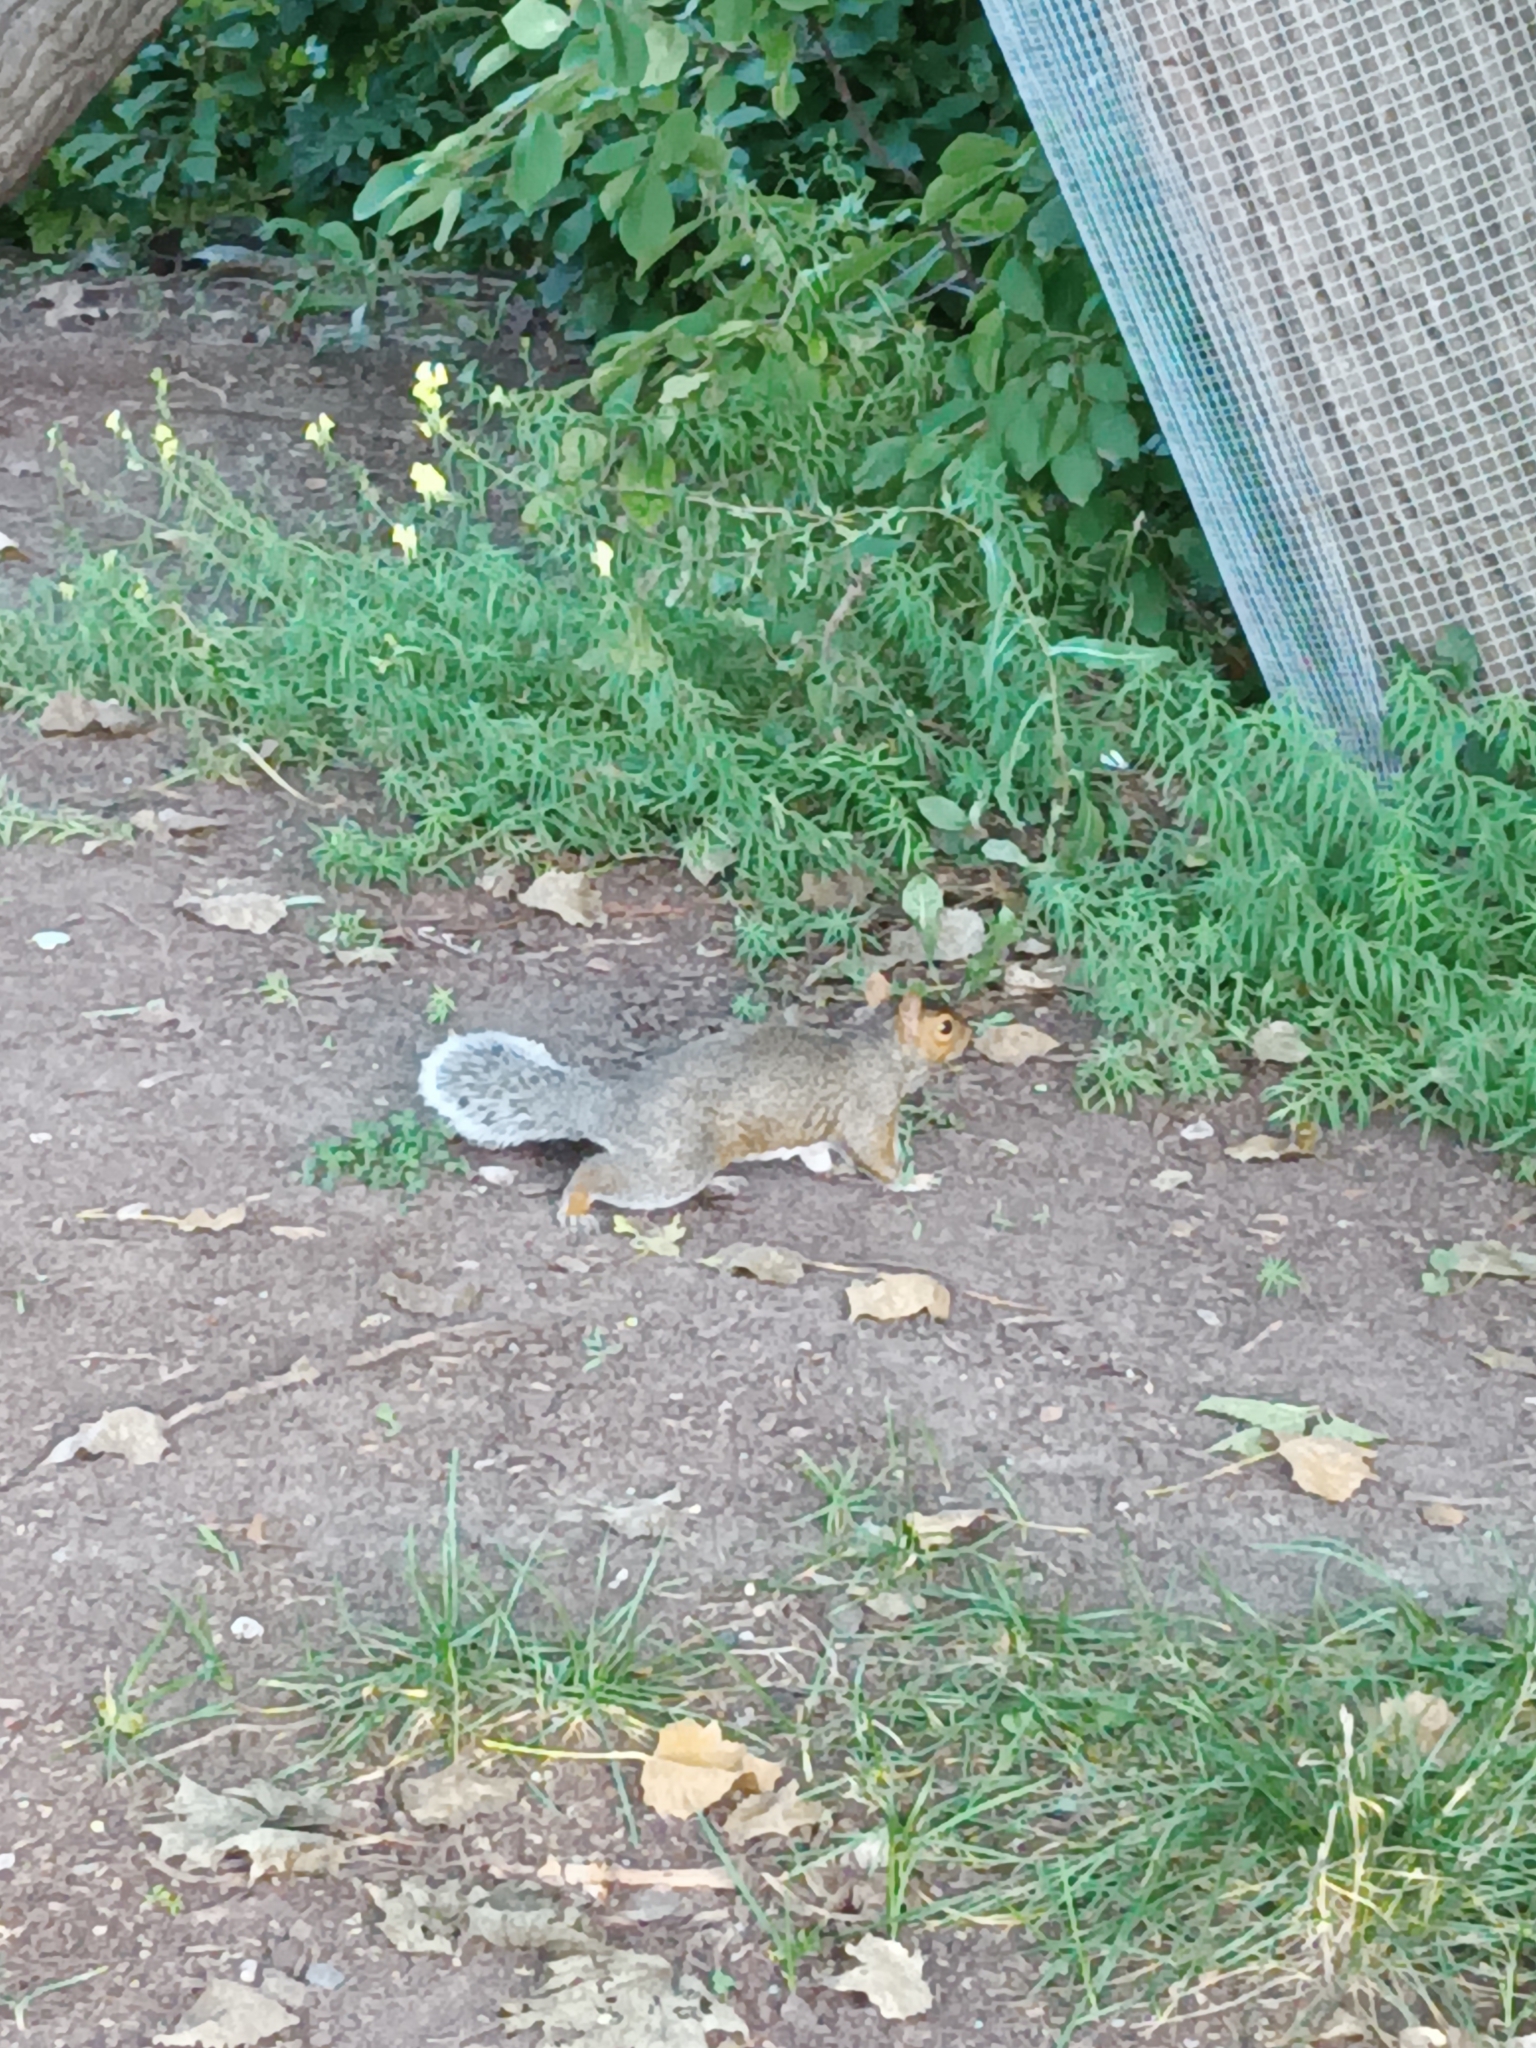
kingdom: Animalia
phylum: Chordata
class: Mammalia
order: Rodentia
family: Sciuridae
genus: Sciurus
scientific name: Sciurus carolinensis
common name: Eastern gray squirrel
